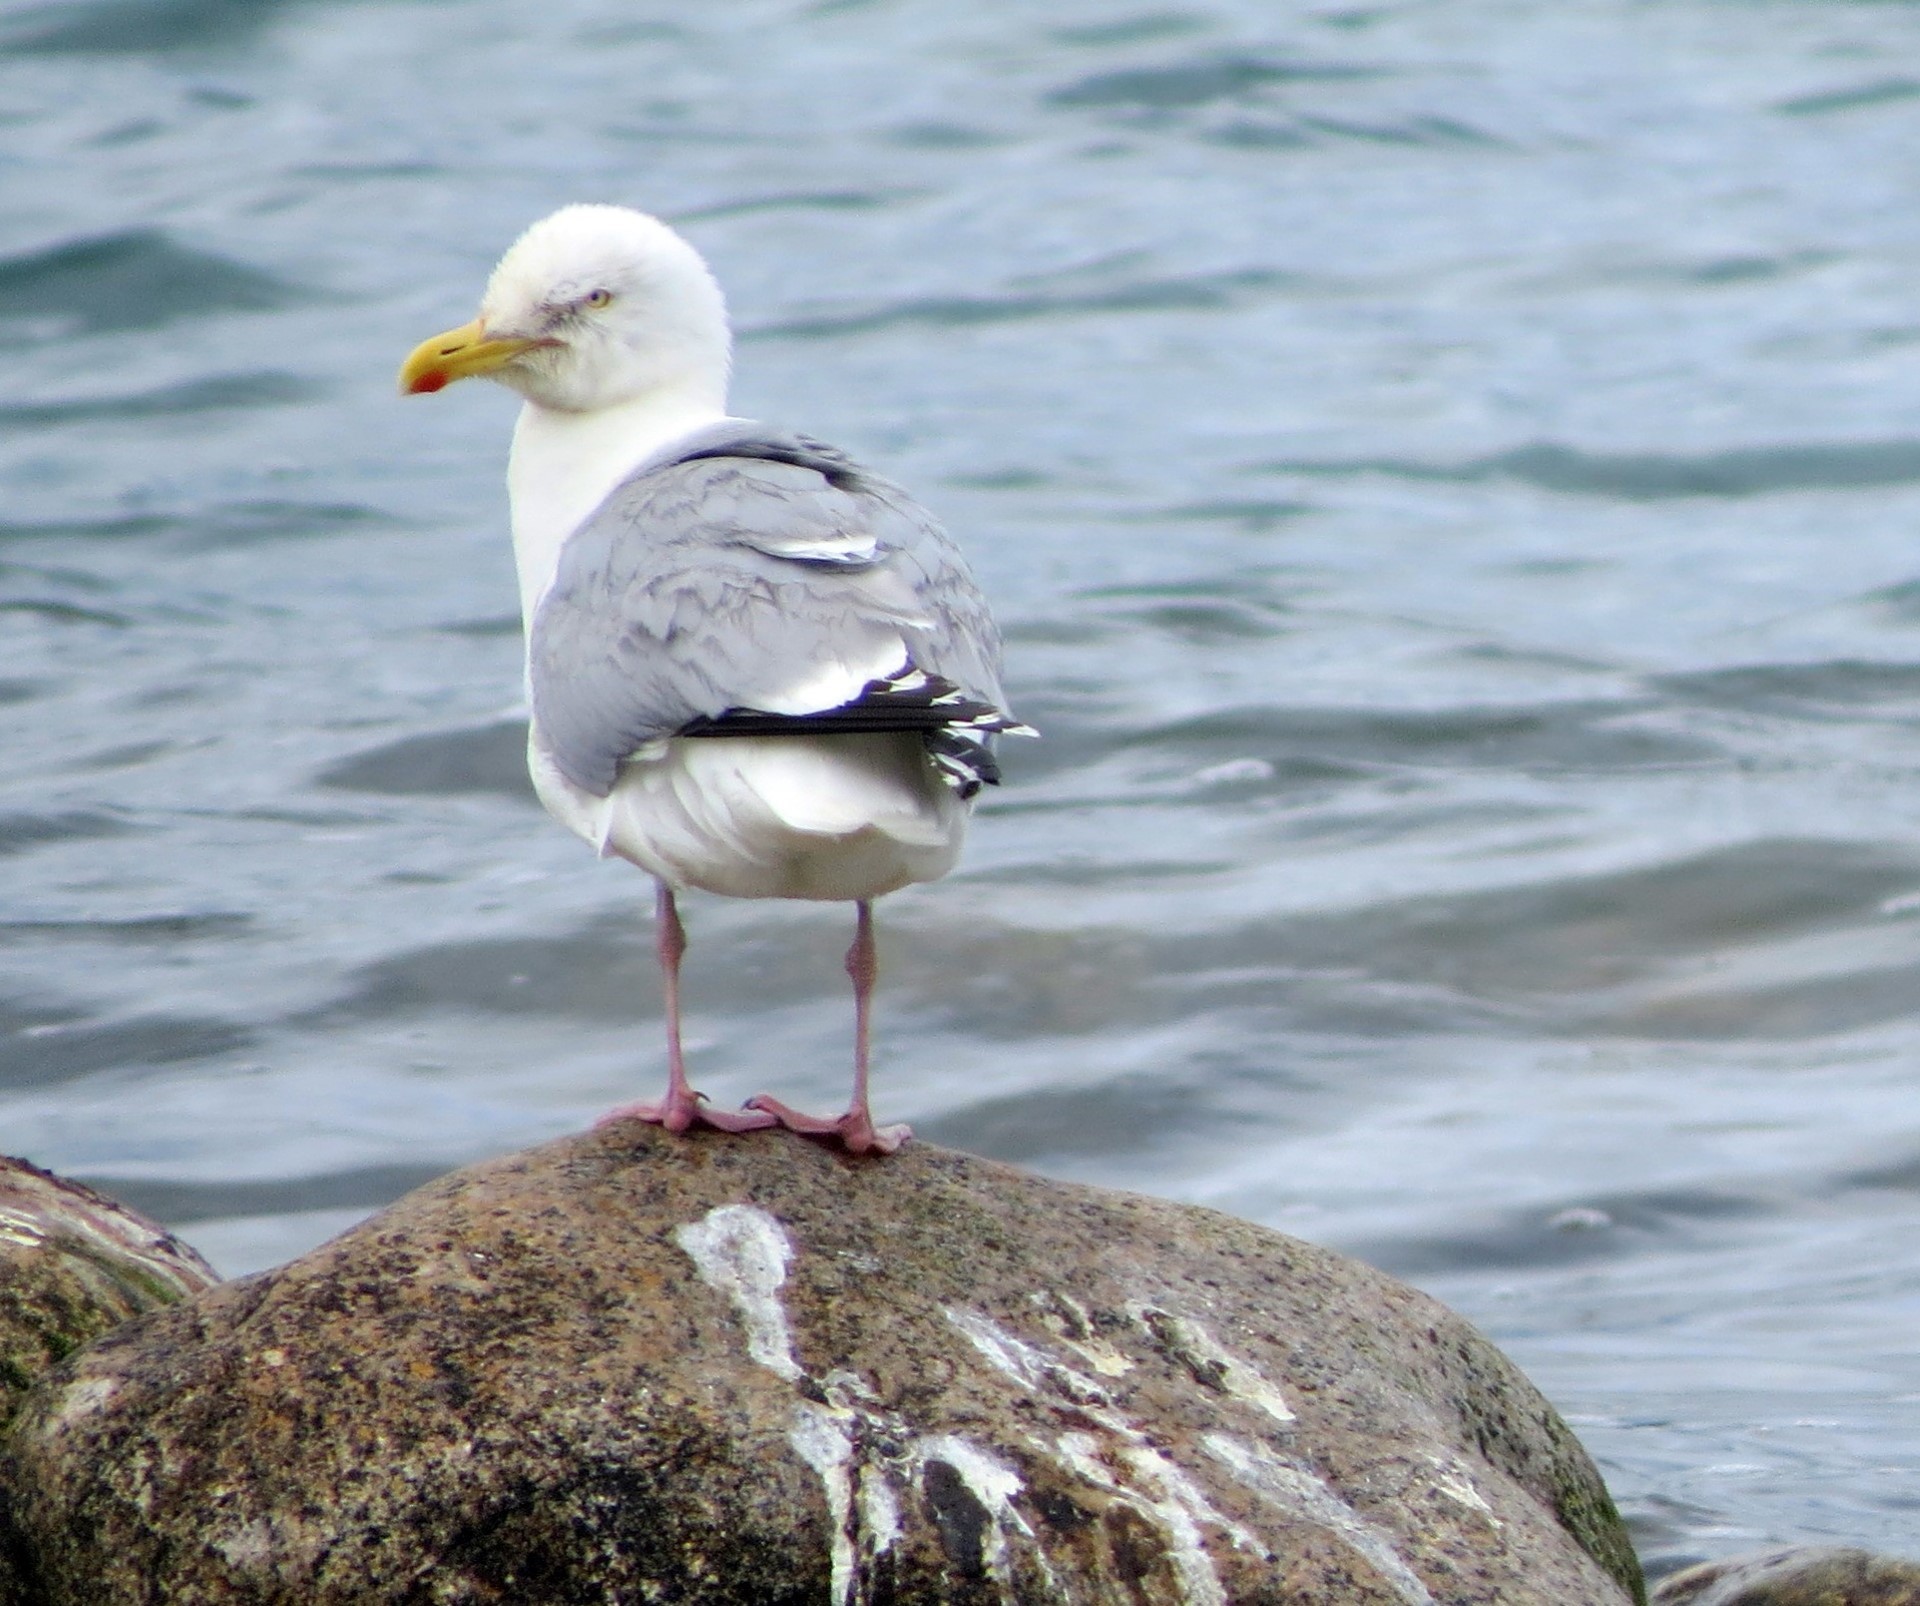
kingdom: Animalia
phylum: Chordata
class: Aves
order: Charadriiformes
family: Laridae
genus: Larus
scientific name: Larus argentatus
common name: Herring gull
